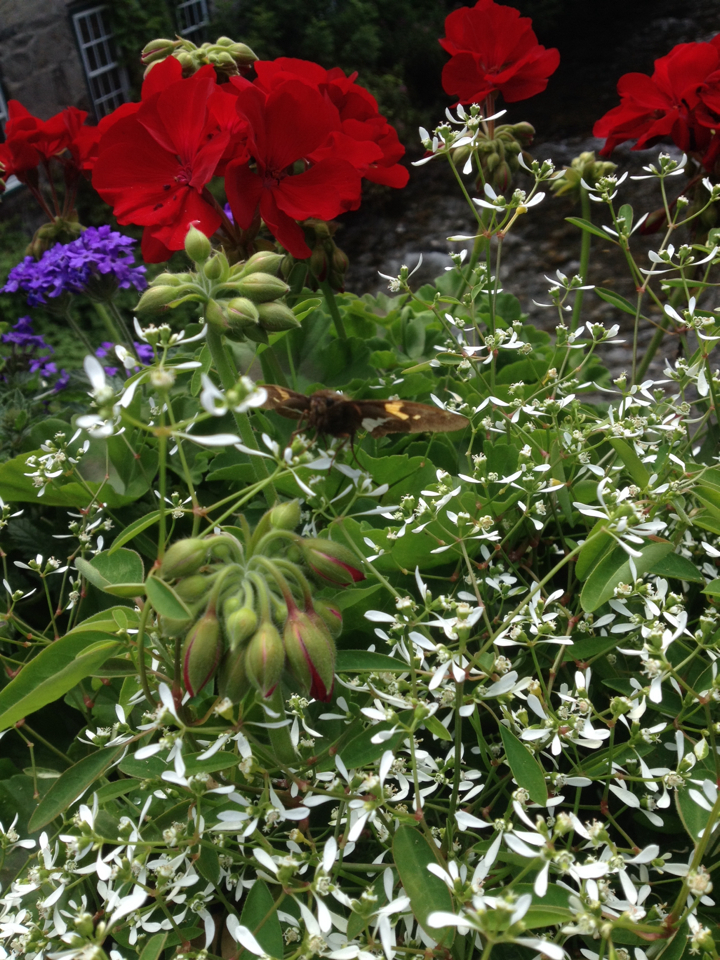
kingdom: Animalia
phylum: Arthropoda
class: Insecta
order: Lepidoptera
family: Hesperiidae
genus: Epargyreus
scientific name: Epargyreus clarus
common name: Silver-spotted skipper
